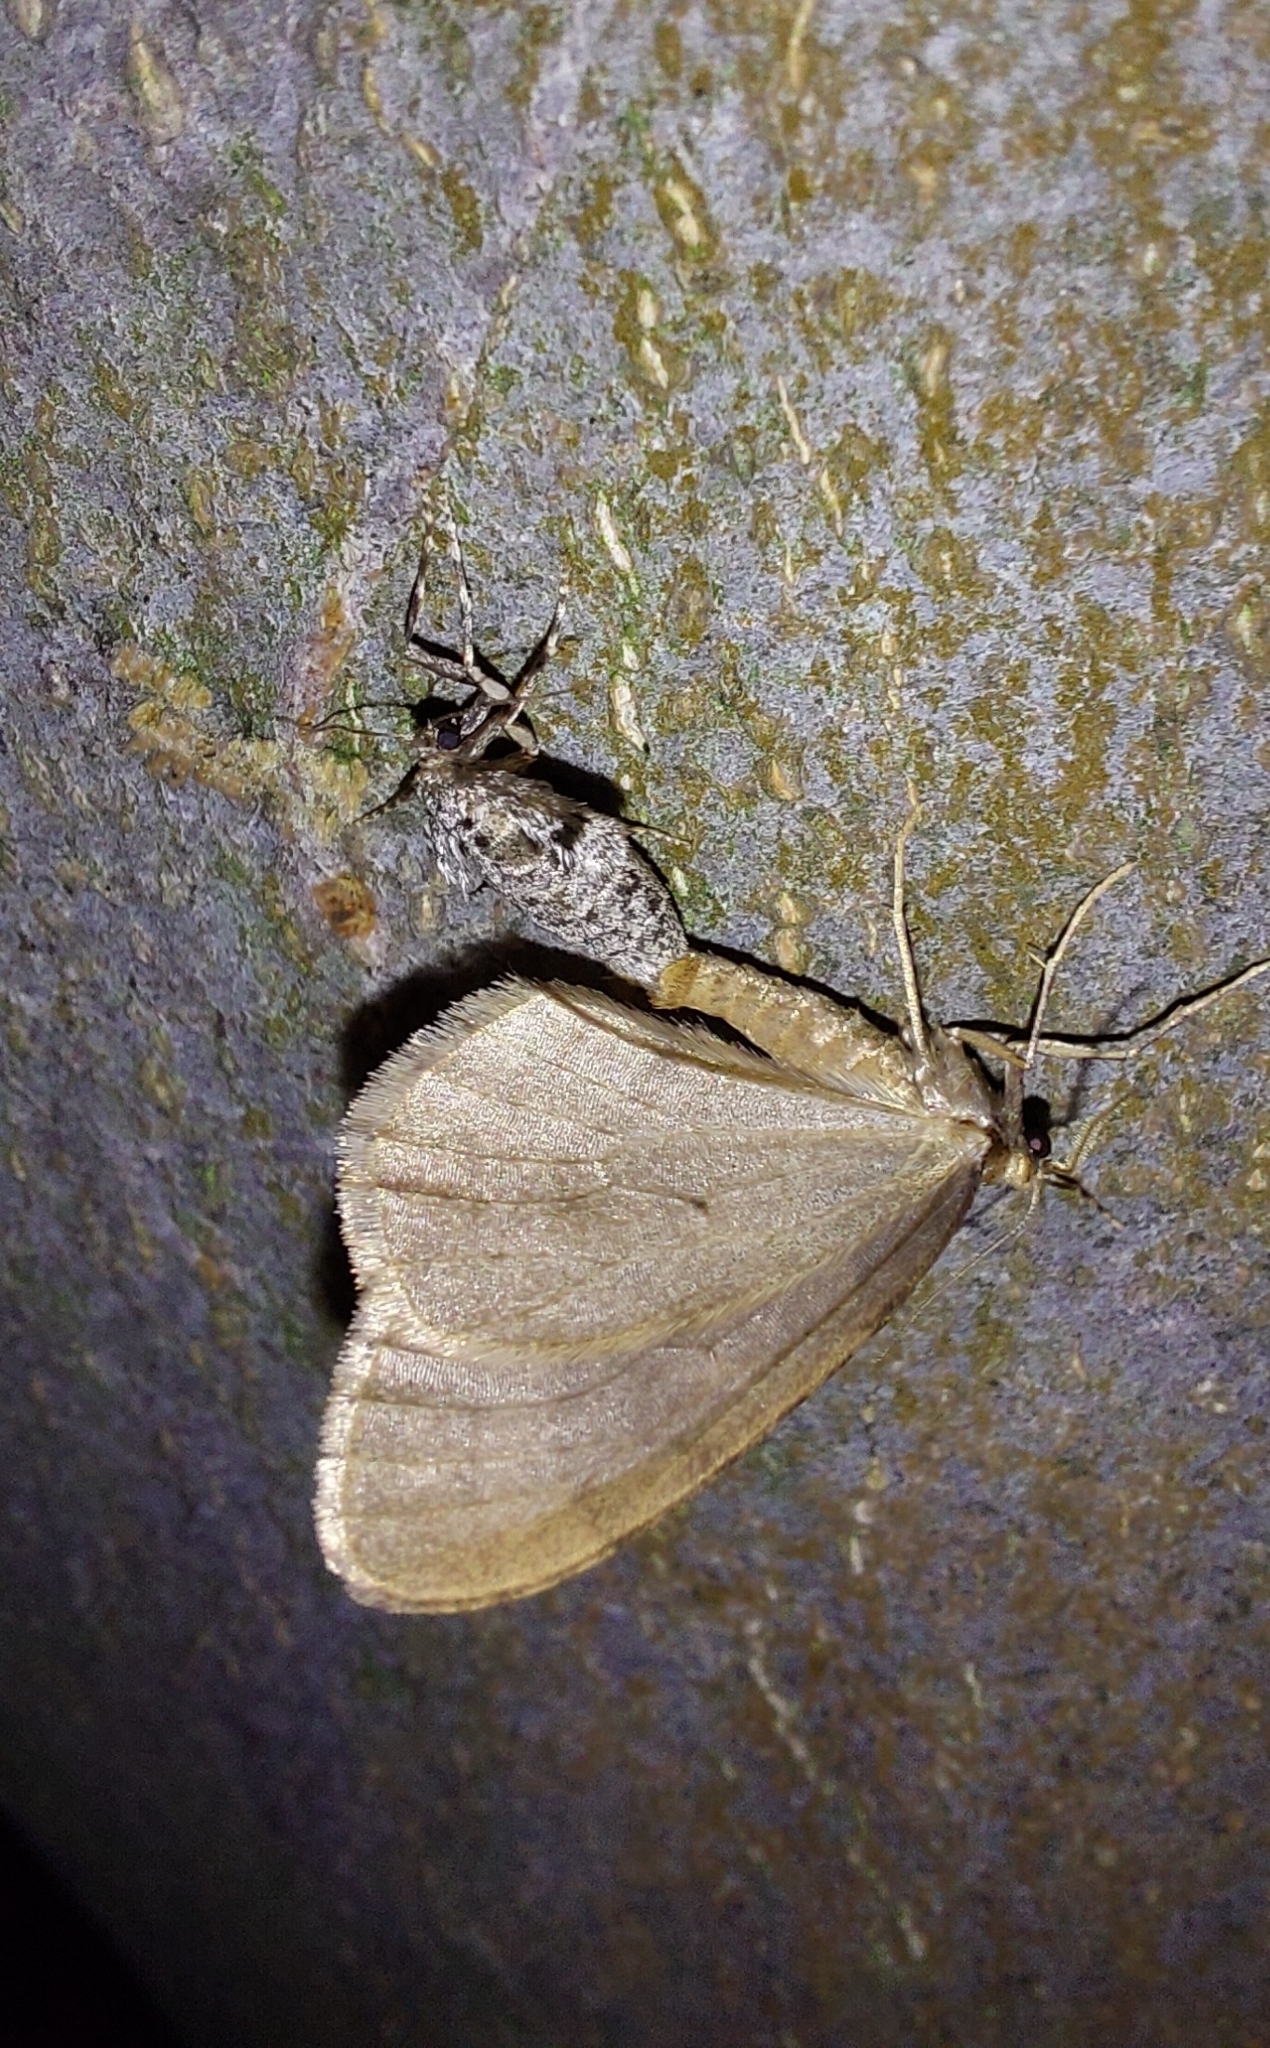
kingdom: Animalia
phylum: Arthropoda
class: Insecta
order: Lepidoptera
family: Geometridae
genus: Operophtera
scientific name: Operophtera brumata
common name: Winter moth
